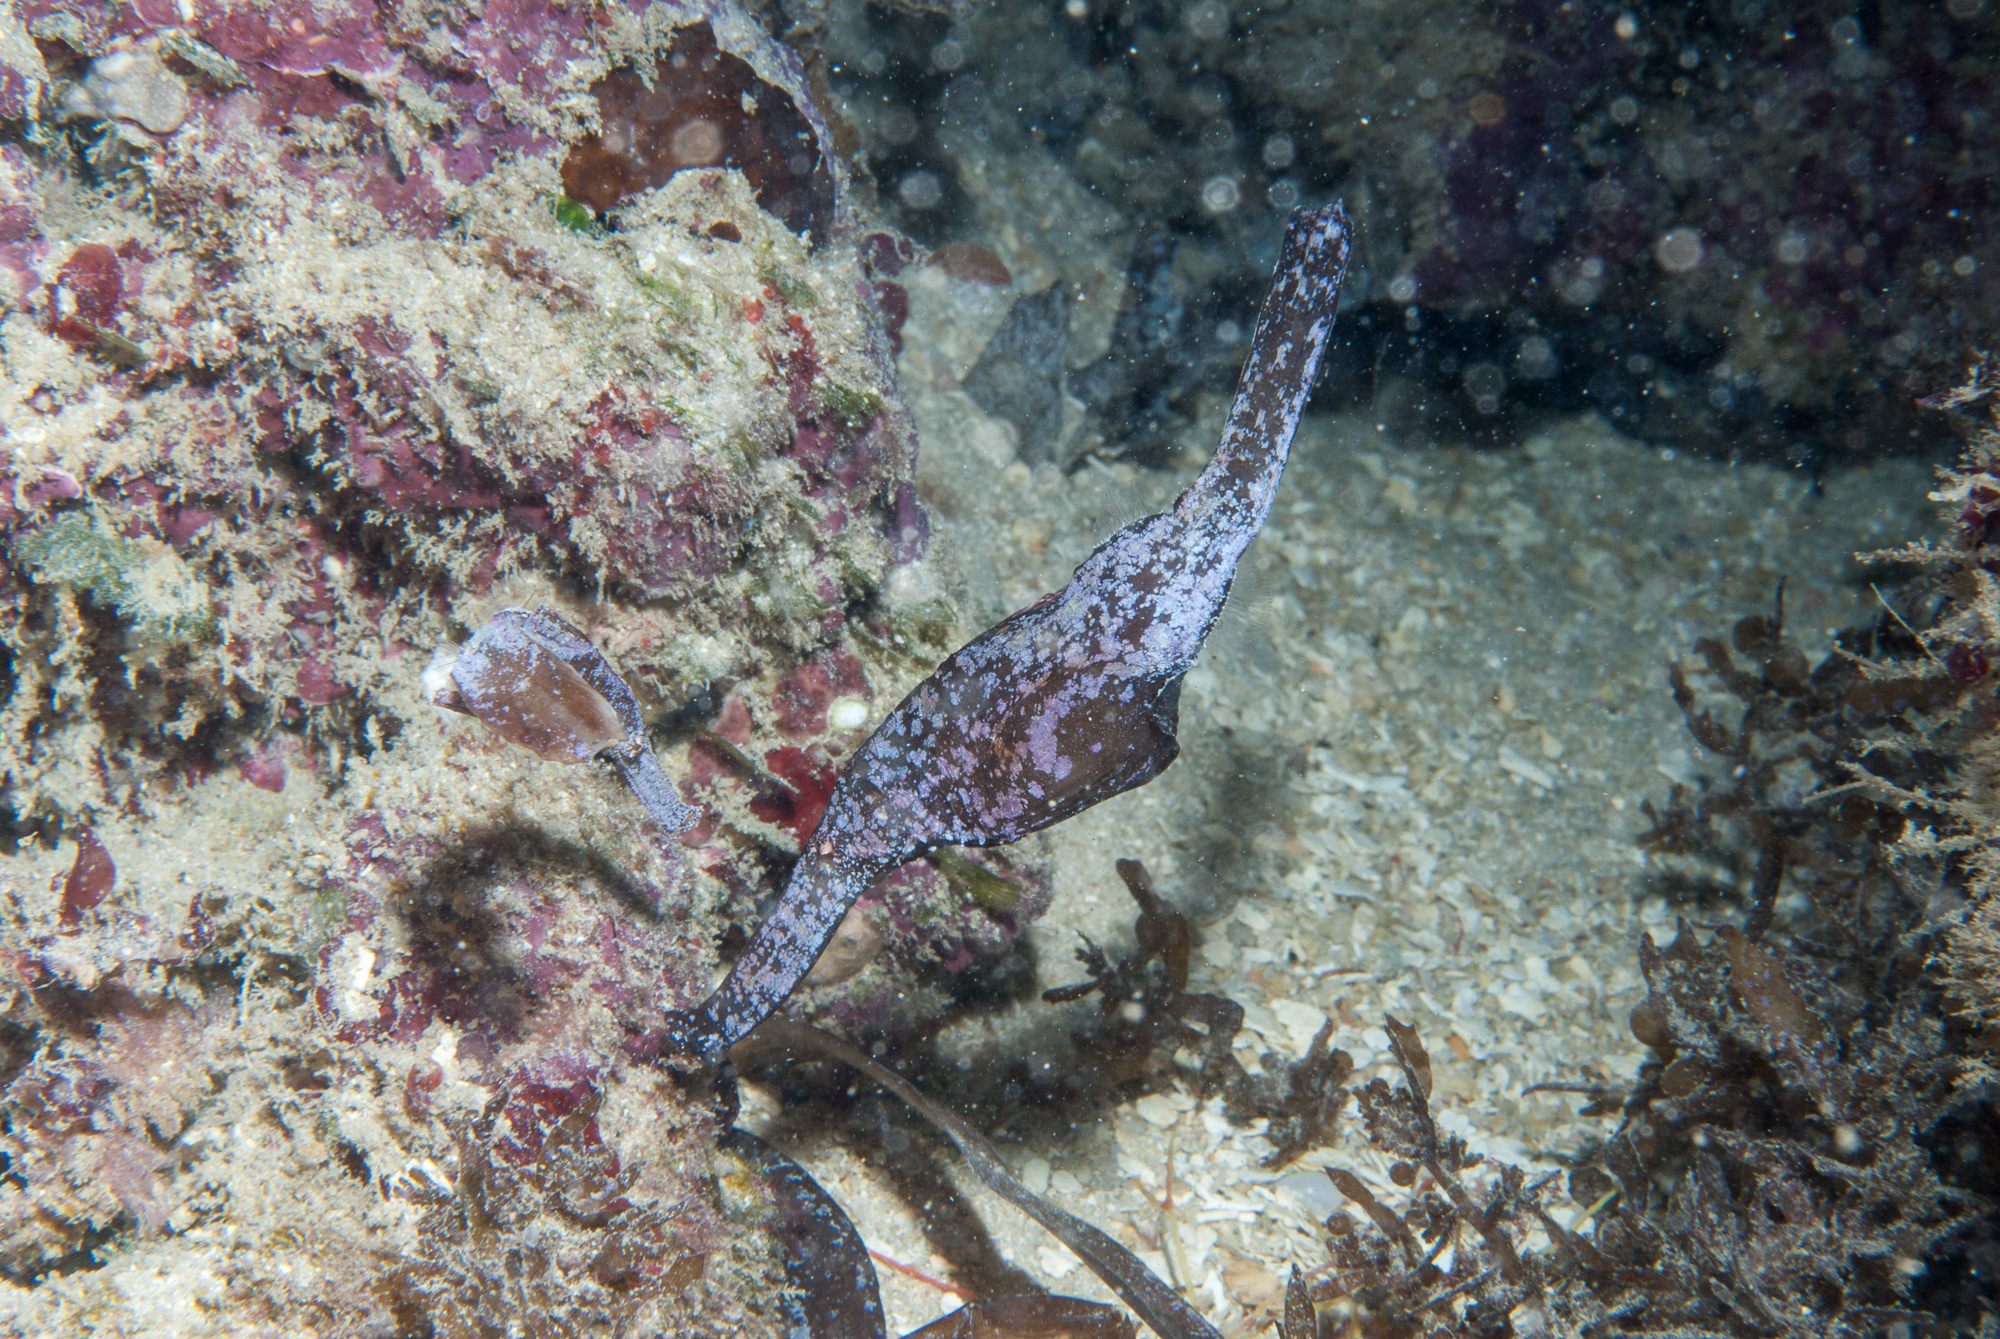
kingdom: Animalia
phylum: Chordata
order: Syngnathiformes
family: Solenostomidae
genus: Solenostomus
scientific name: Solenostomus cyanopterus
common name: Blue-finned ghost pipefish
